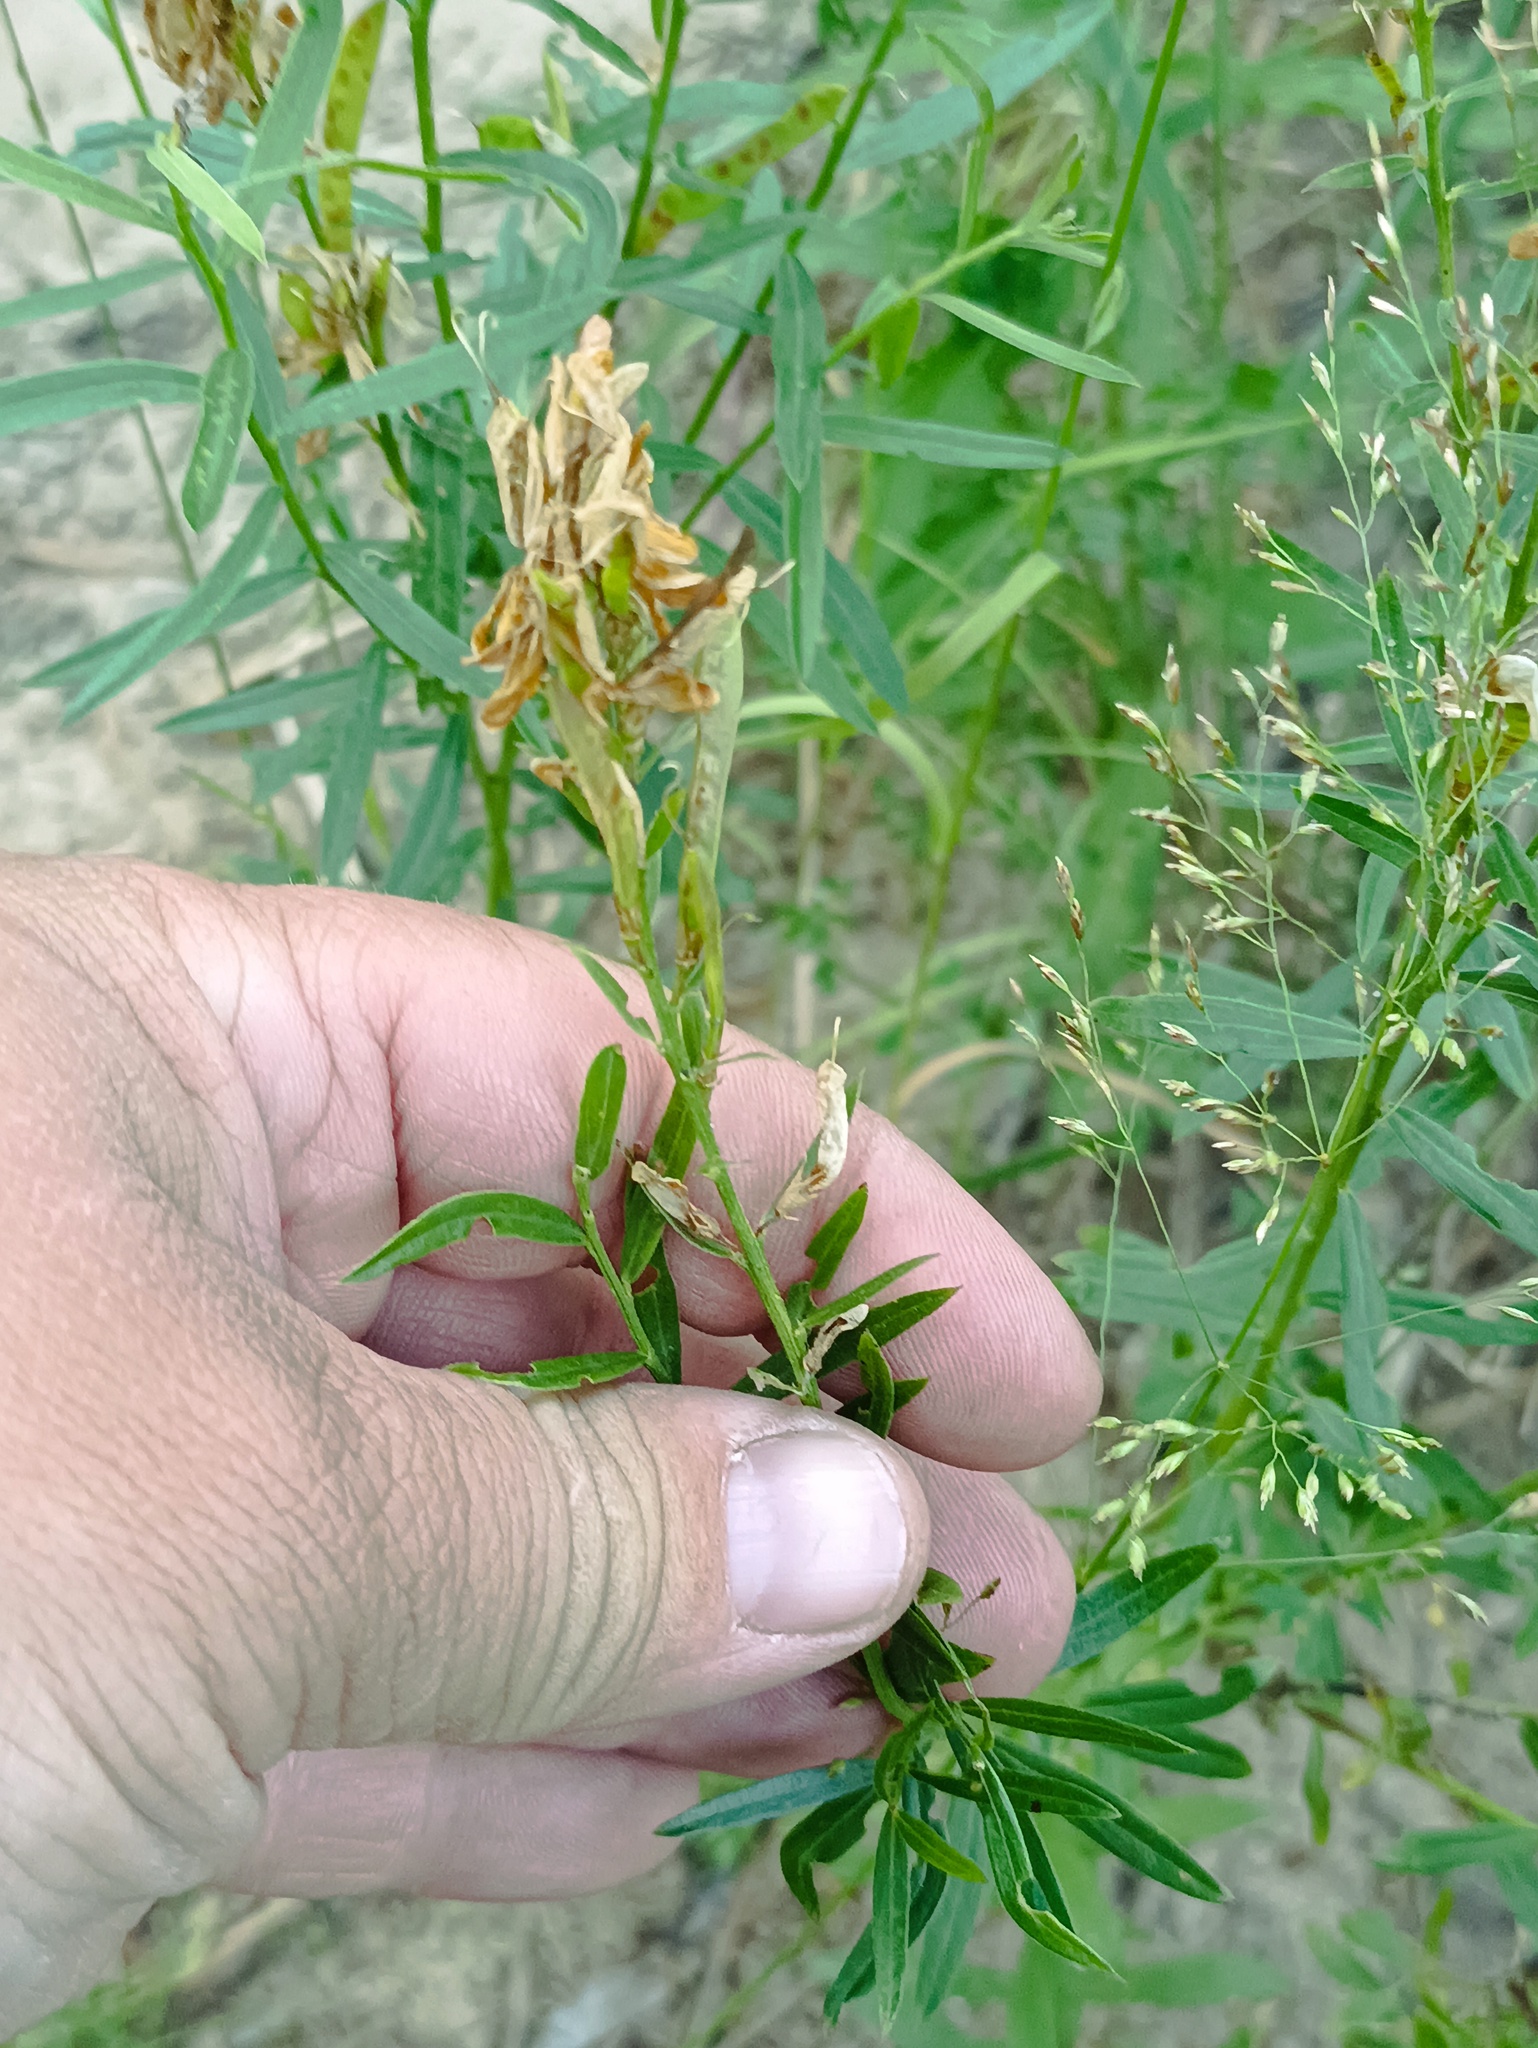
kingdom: Plantae
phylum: Tracheophyta
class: Magnoliopsida
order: Fabales
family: Fabaceae
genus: Genista
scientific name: Genista tinctoria
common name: Dyer's greenweed
